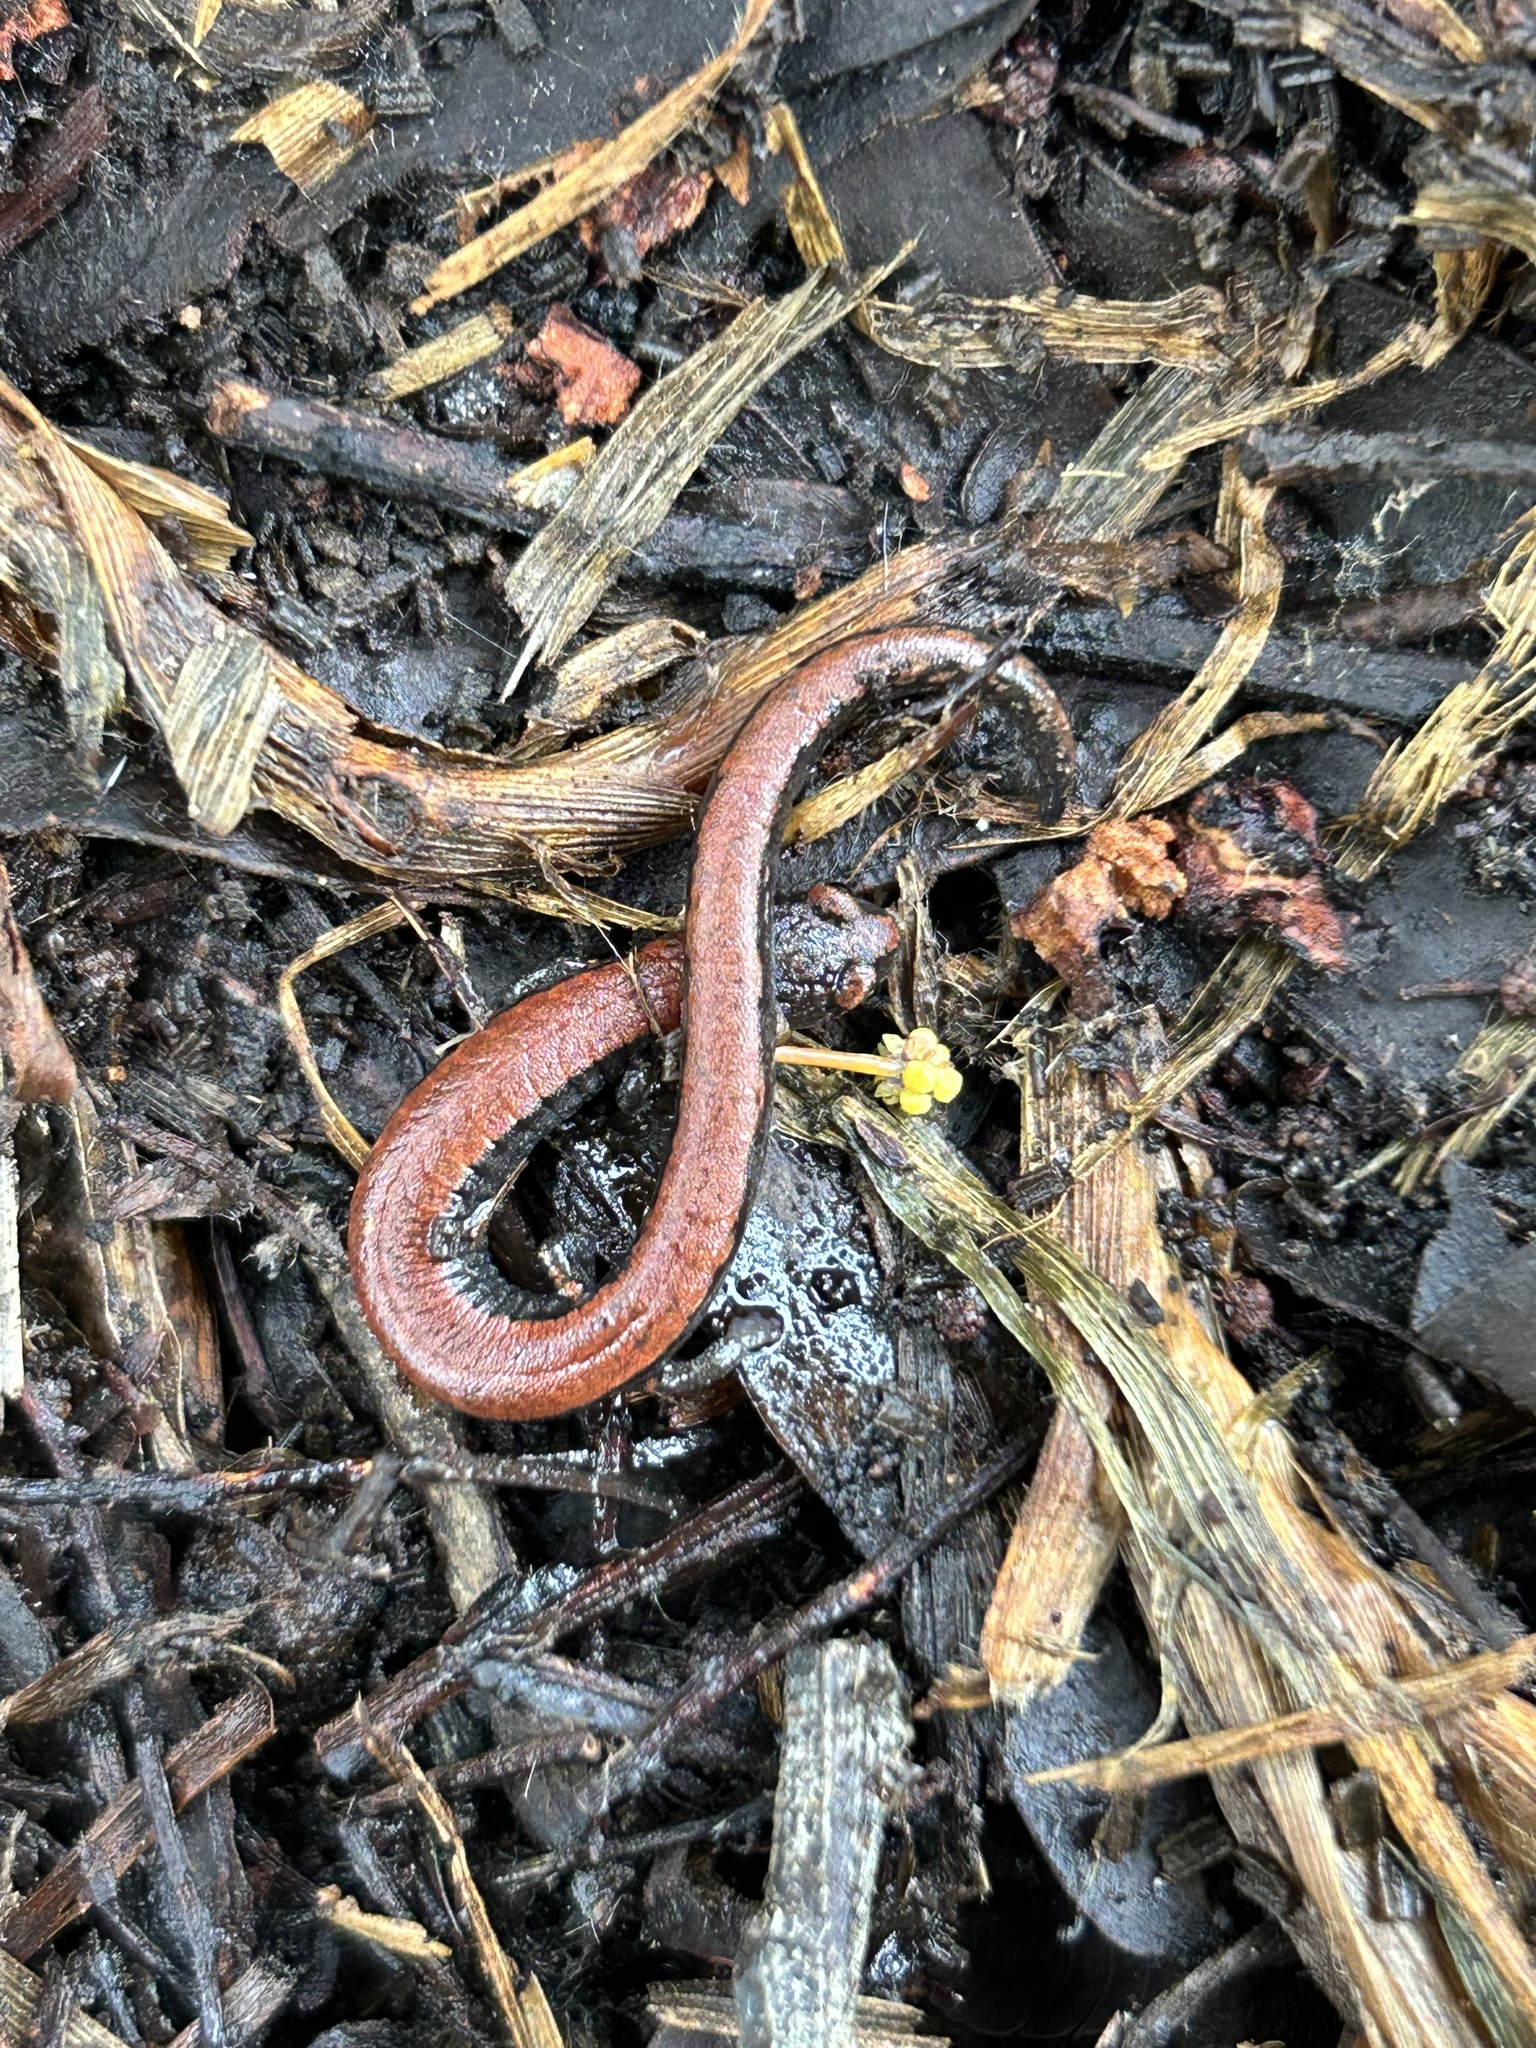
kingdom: Animalia
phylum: Chordata
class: Amphibia
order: Caudata
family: Plethodontidae
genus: Batrachoseps
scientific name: Batrachoseps nigriventris
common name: Black-bellied slender salamander
